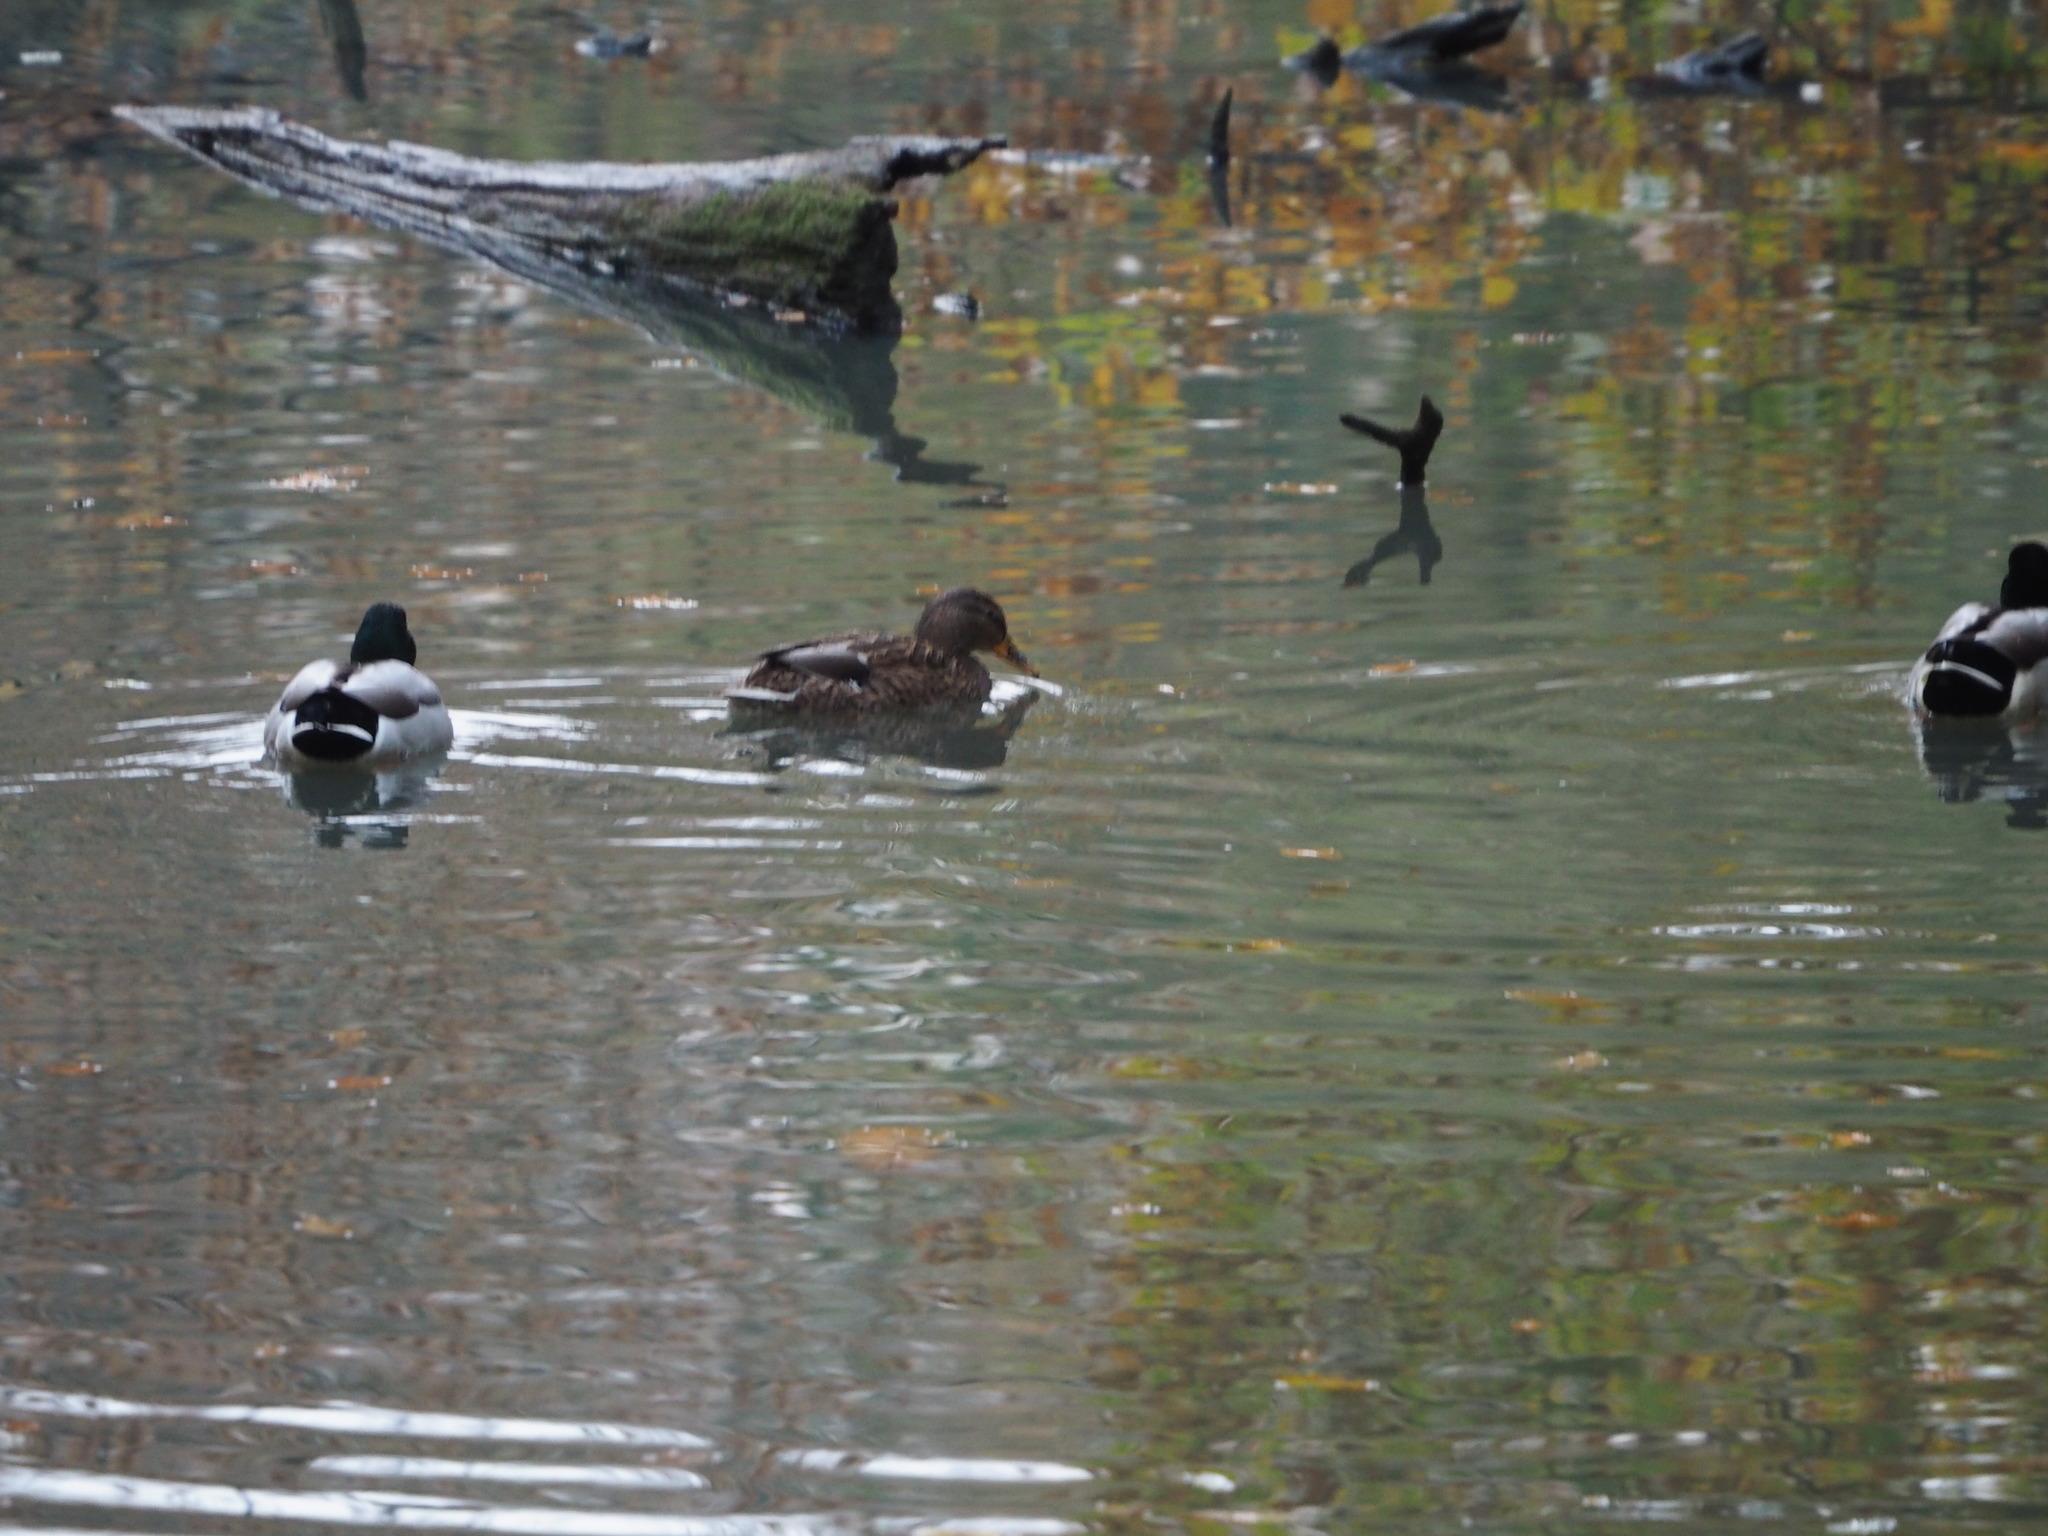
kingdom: Animalia
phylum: Chordata
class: Aves
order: Anseriformes
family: Anatidae
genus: Anas
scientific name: Anas platyrhynchos
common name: Mallard
